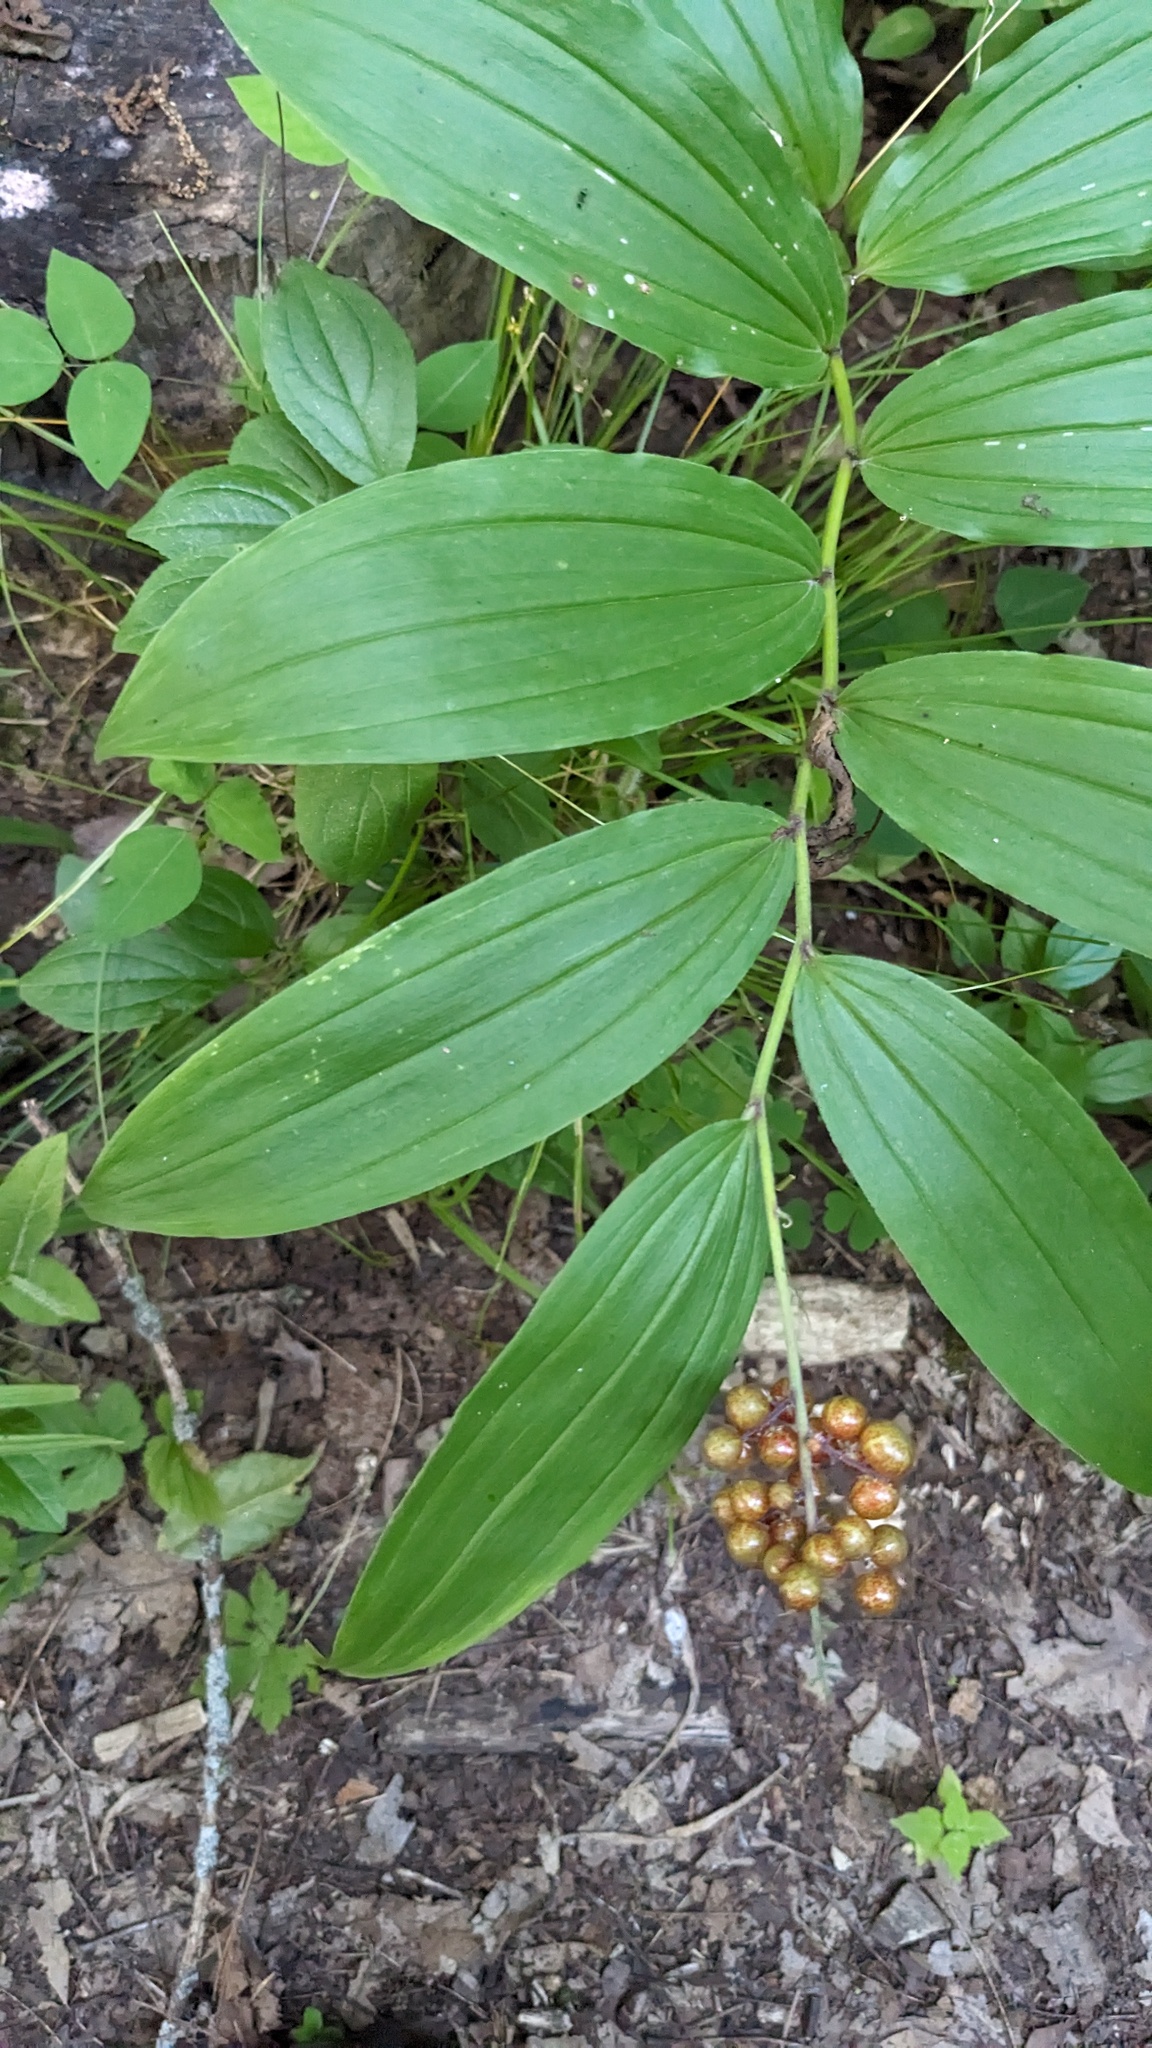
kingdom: Plantae
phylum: Tracheophyta
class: Liliopsida
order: Asparagales
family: Asparagaceae
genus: Maianthemum
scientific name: Maianthemum racemosum
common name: False spikenard
